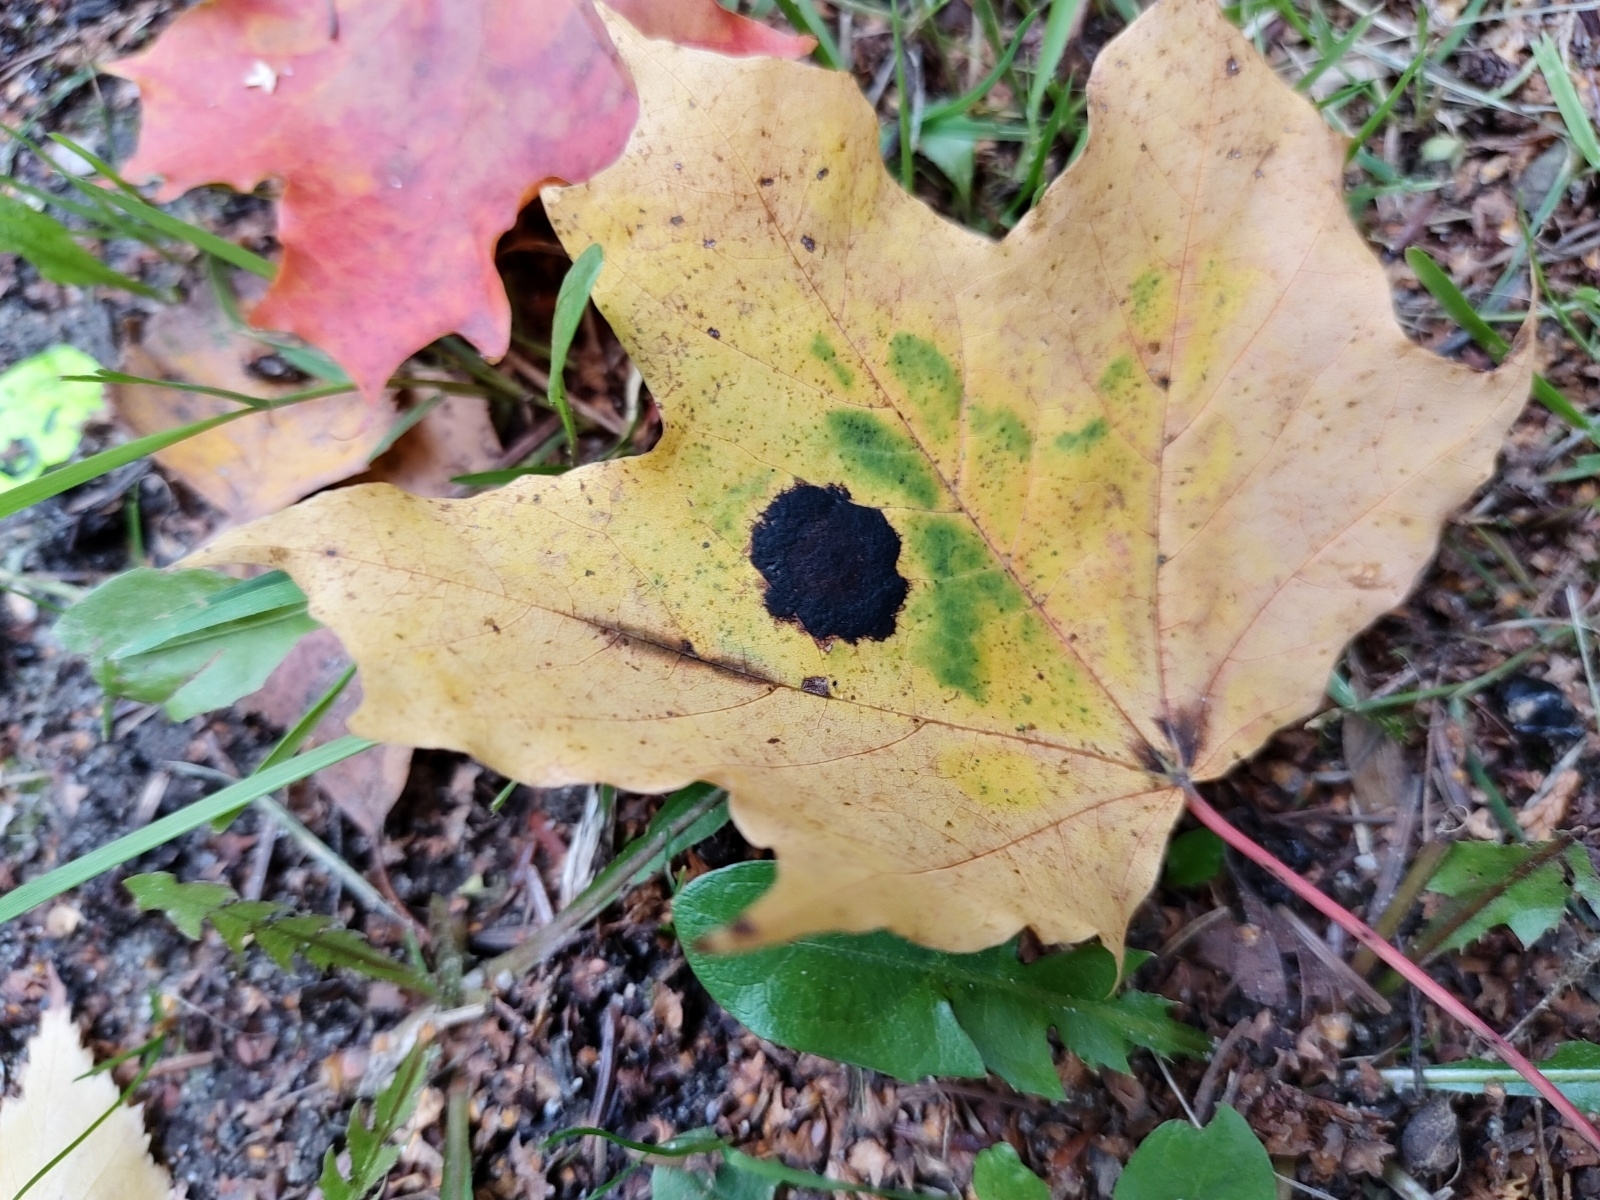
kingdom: Fungi
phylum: Ascomycota
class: Leotiomycetes
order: Rhytismatales
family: Rhytismataceae
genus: Rhytisma
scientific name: Rhytisma acerinum
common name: European tar spot
